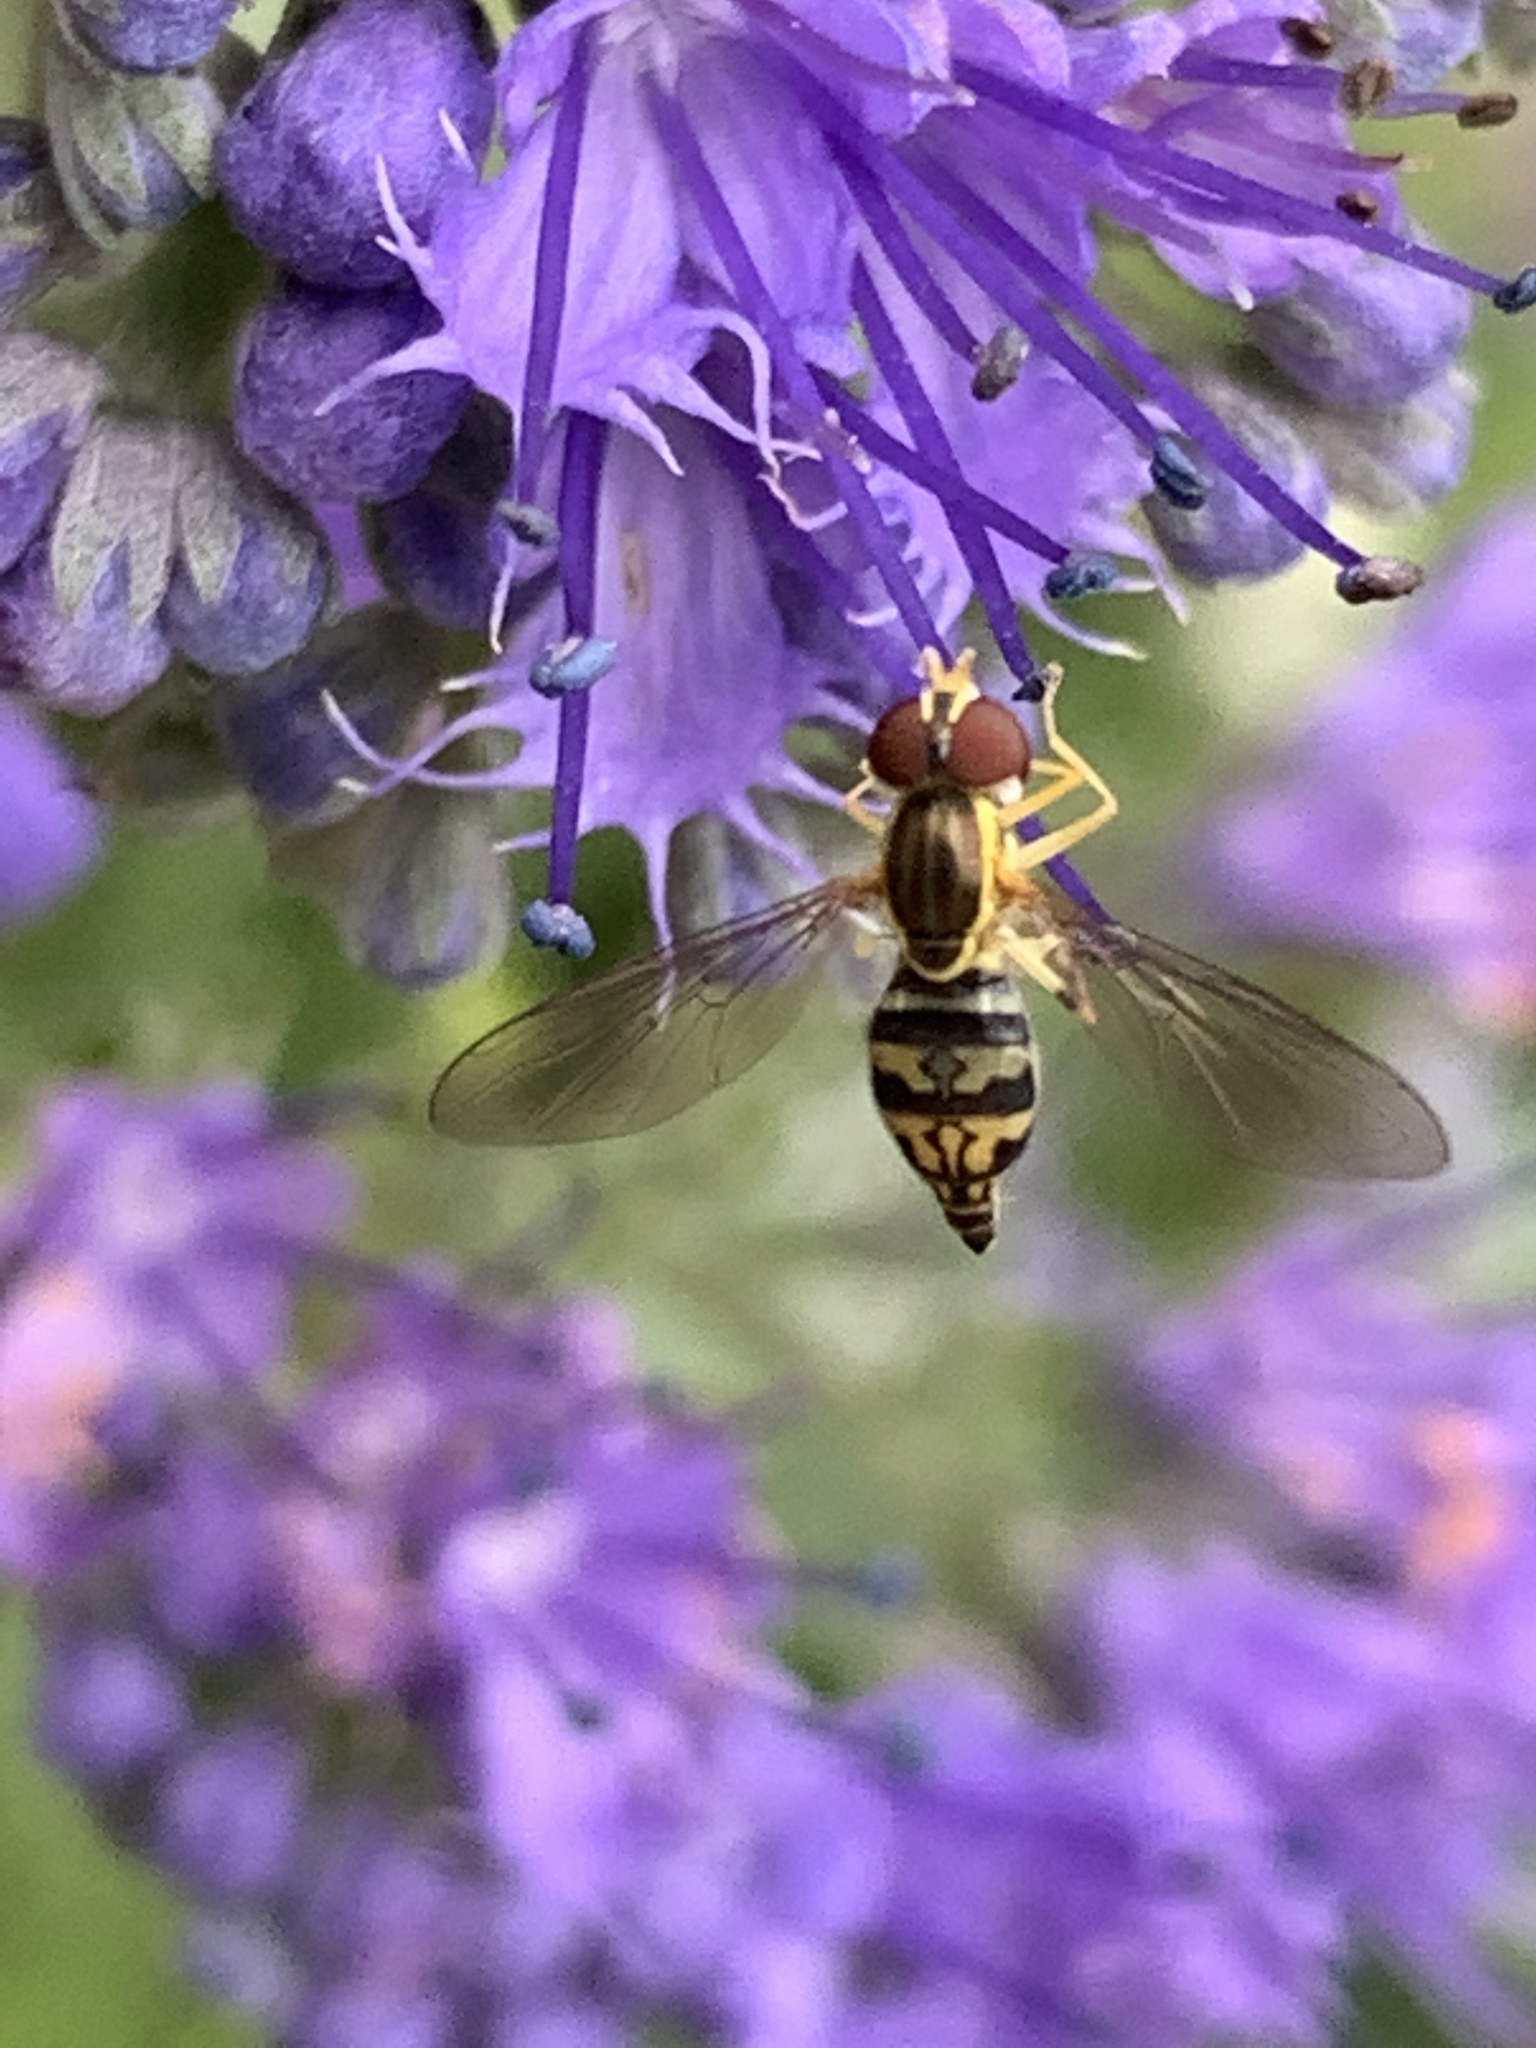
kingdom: Animalia
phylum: Arthropoda
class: Insecta
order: Diptera
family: Syrphidae
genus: Toxomerus
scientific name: Toxomerus geminatus
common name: Eastern calligrapher
